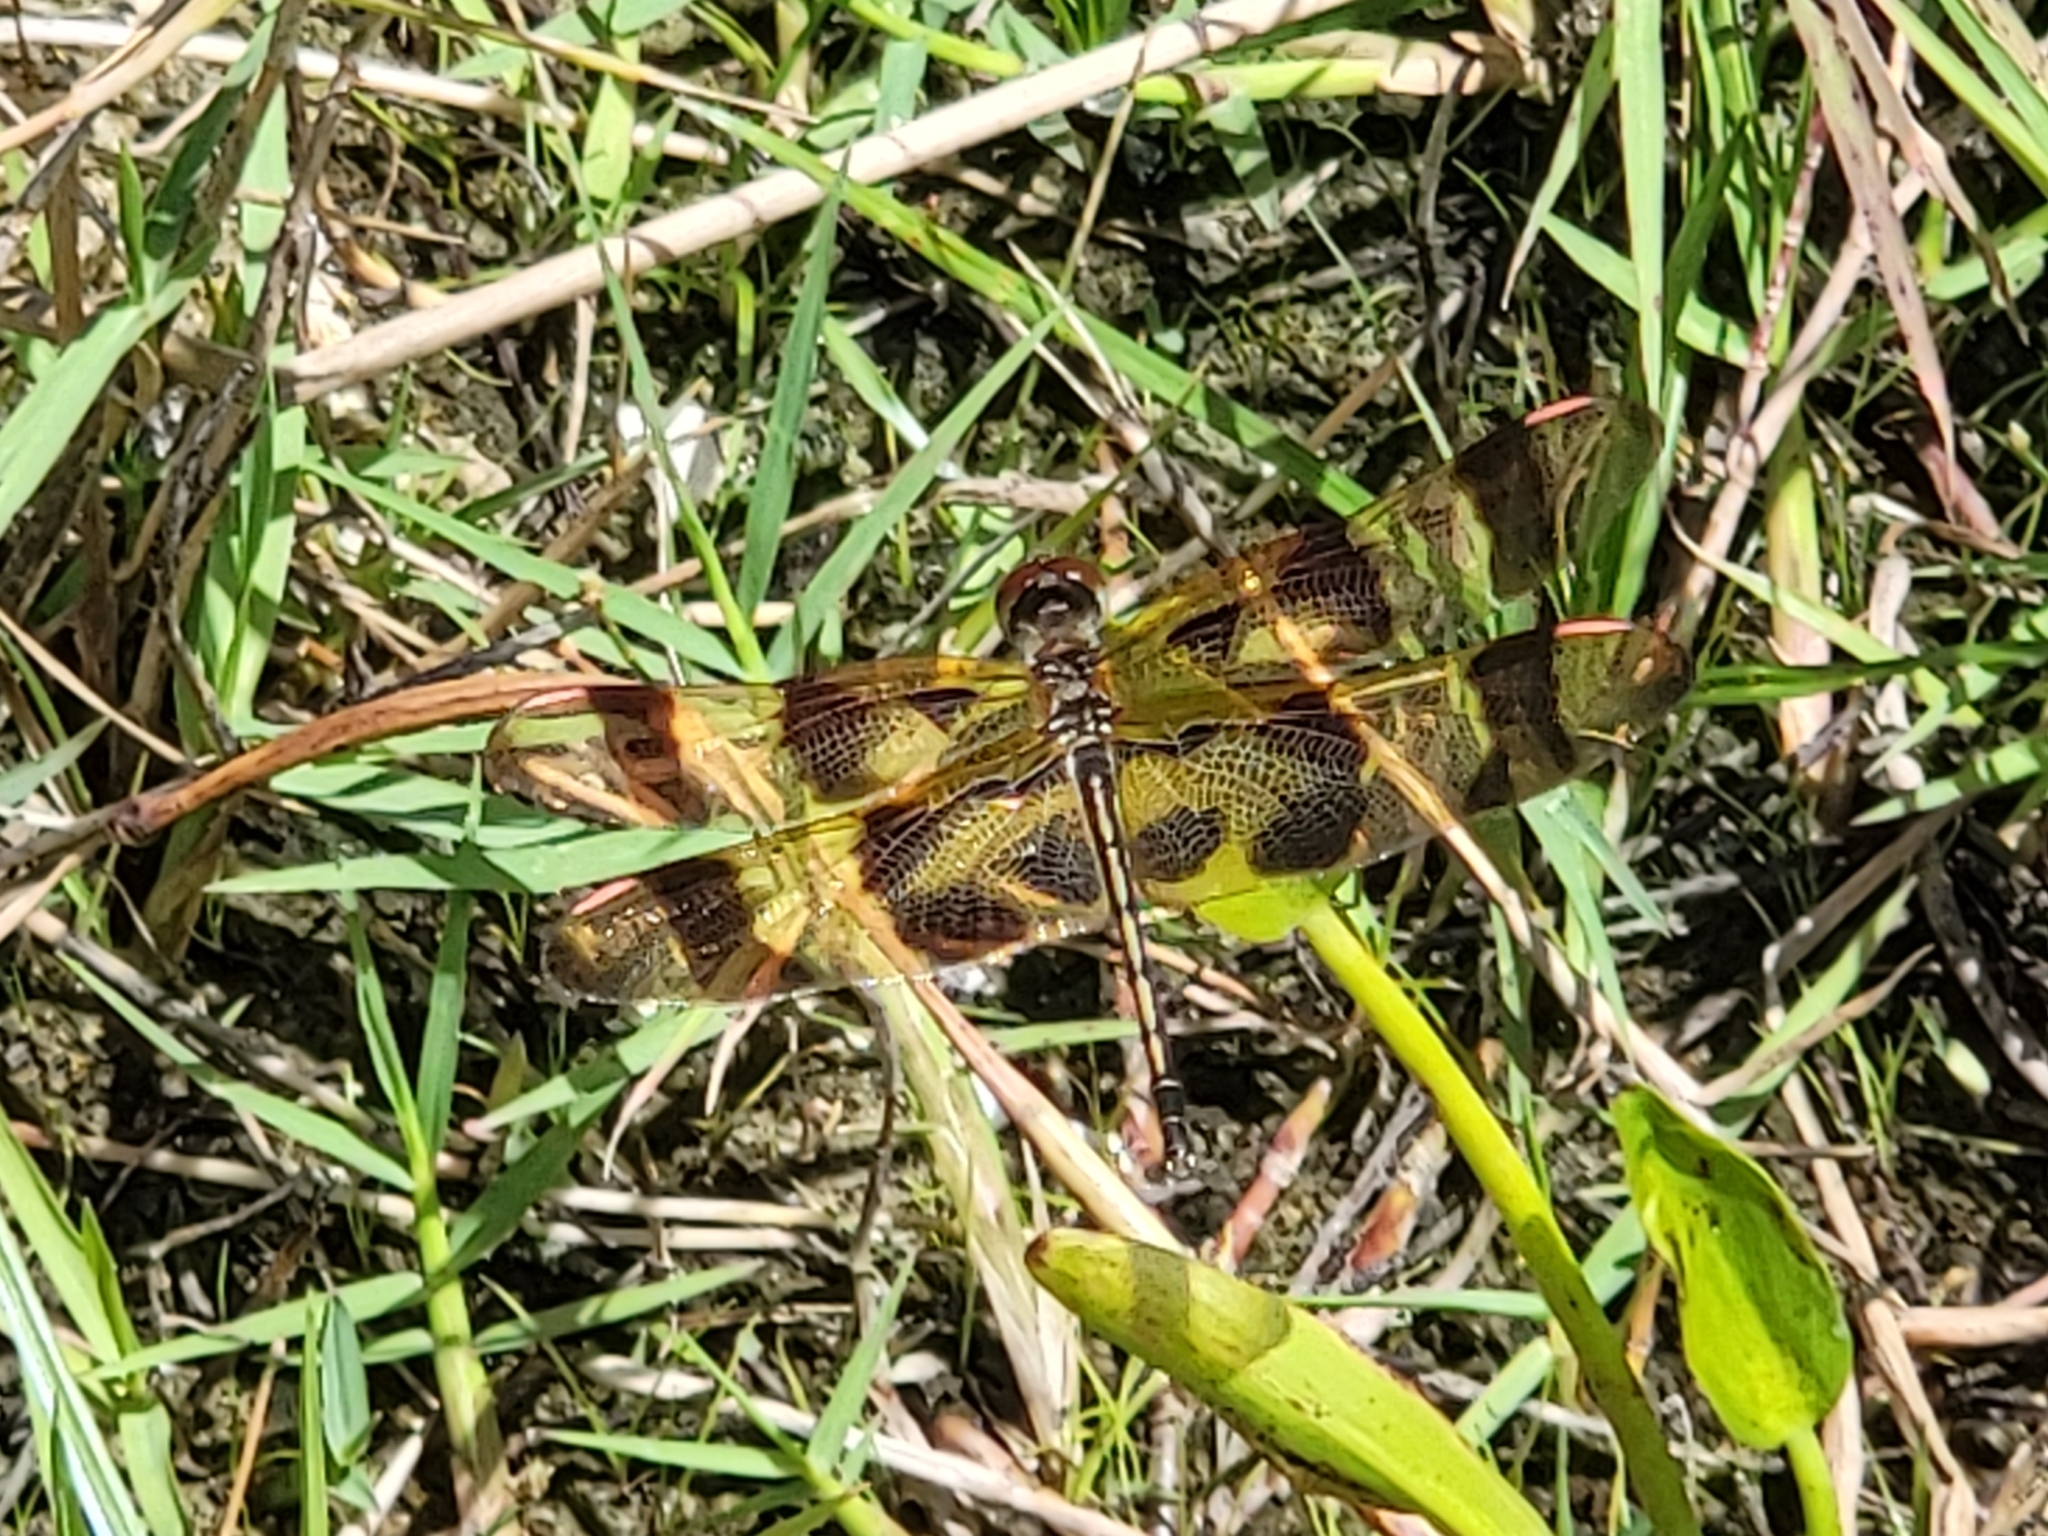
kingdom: Animalia
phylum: Arthropoda
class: Insecta
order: Odonata
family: Libellulidae
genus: Celithemis
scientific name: Celithemis eponina
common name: Halloween pennant
